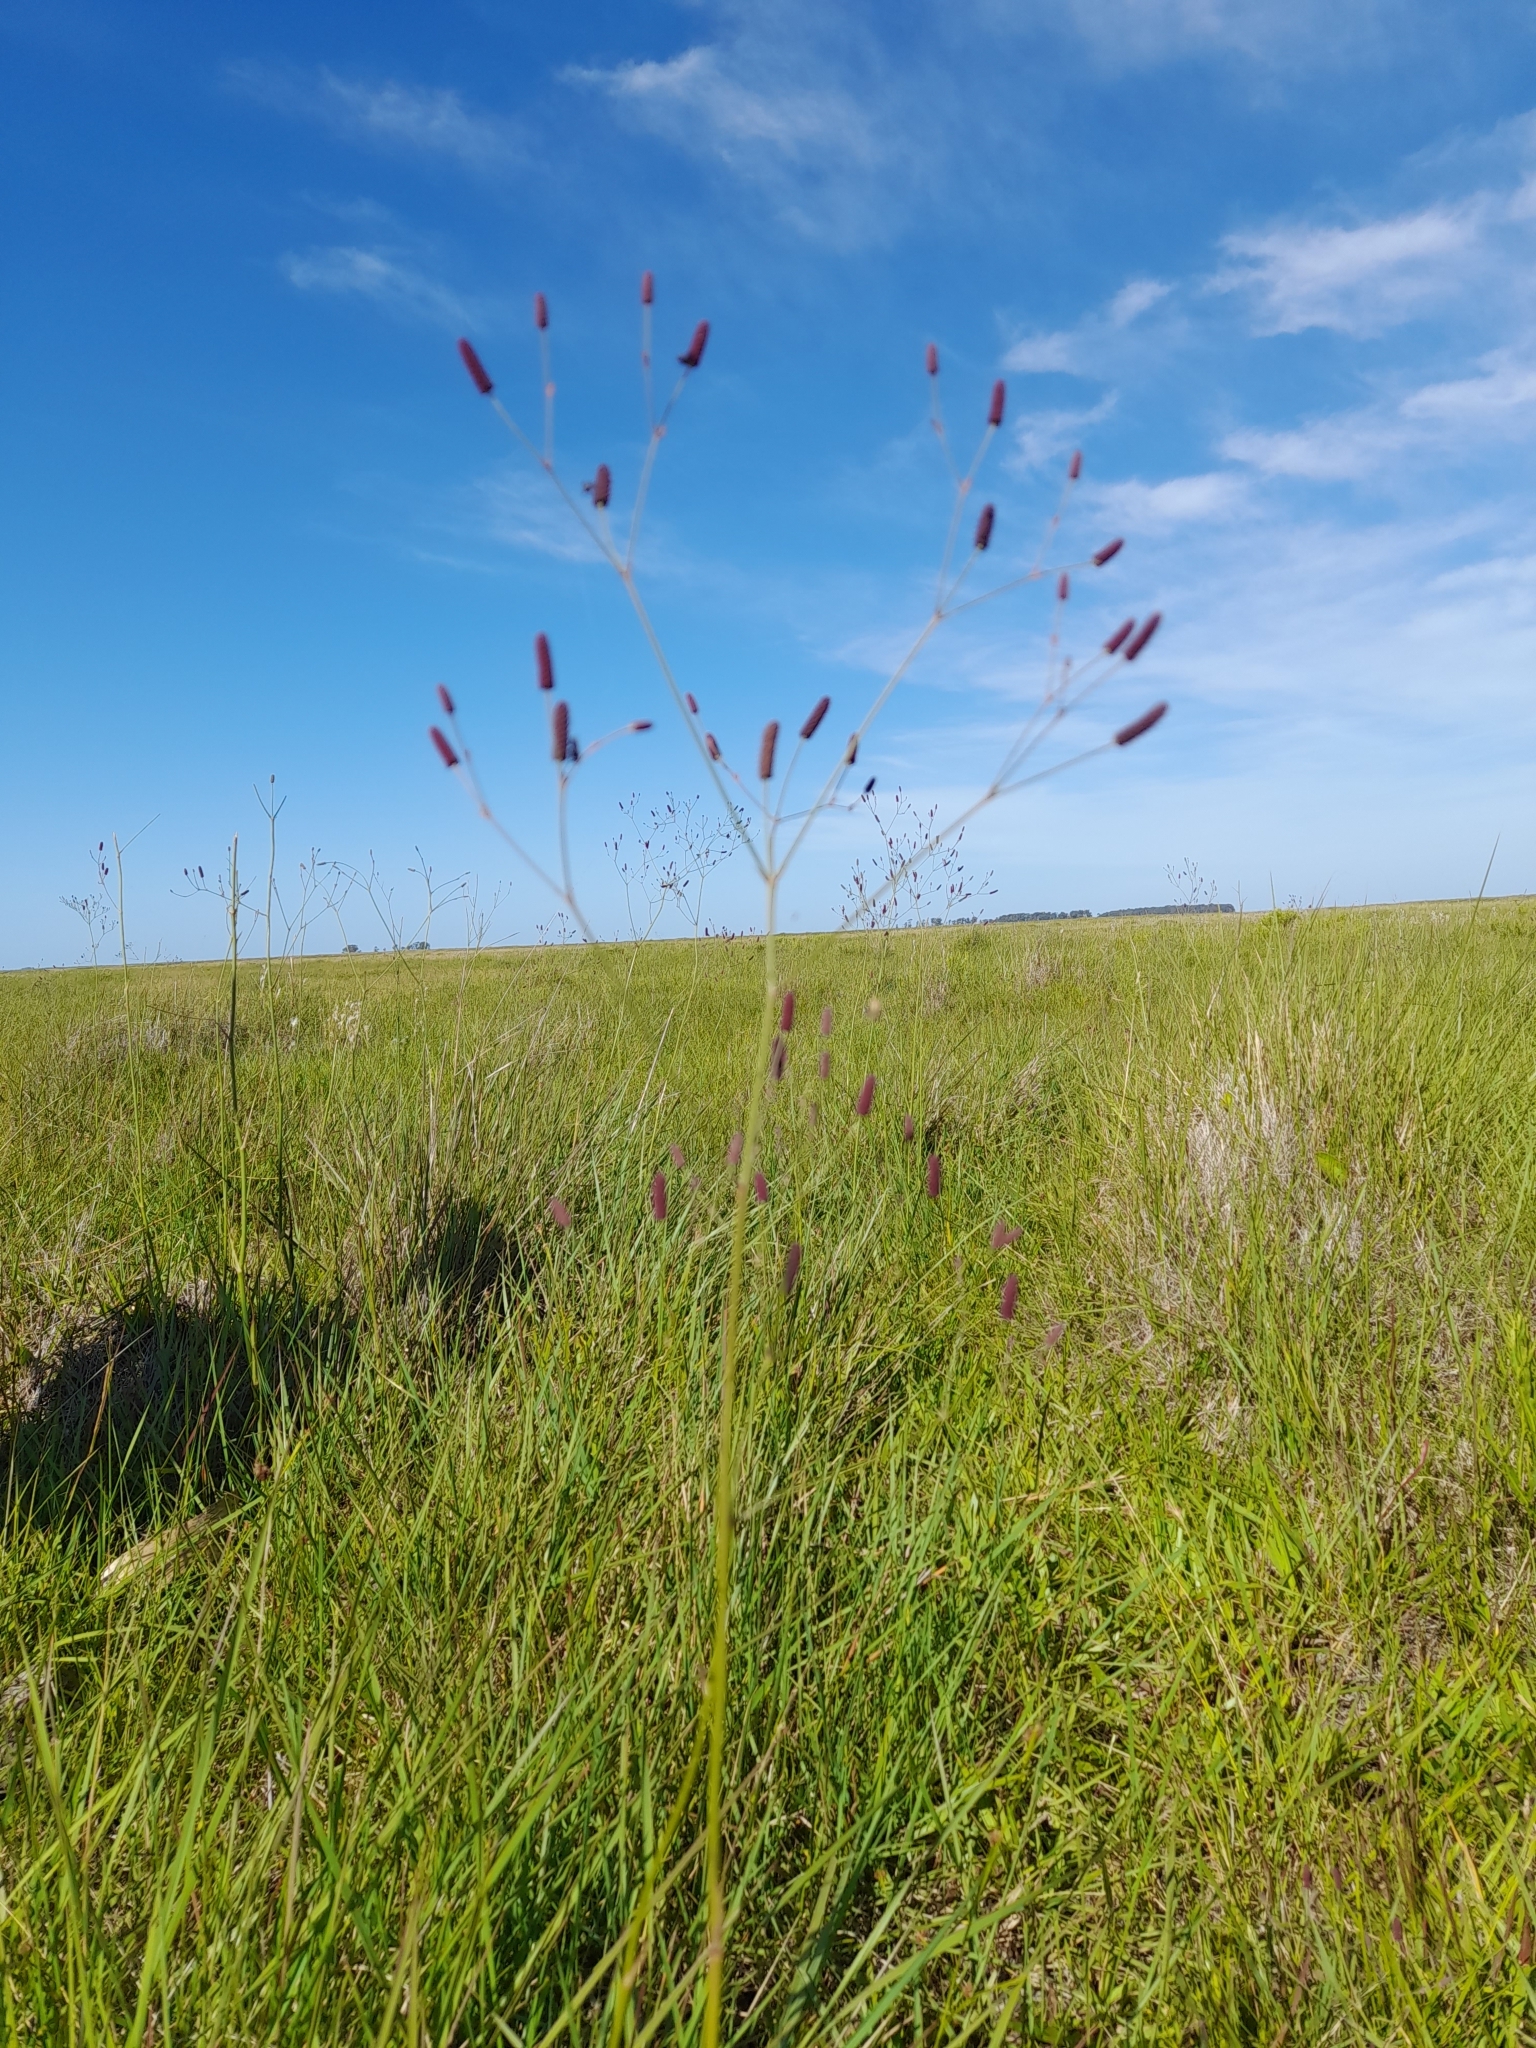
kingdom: Plantae
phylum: Tracheophyta
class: Magnoliopsida
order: Apiales
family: Apiaceae
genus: Eryngium
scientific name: Eryngium ebracteatum
